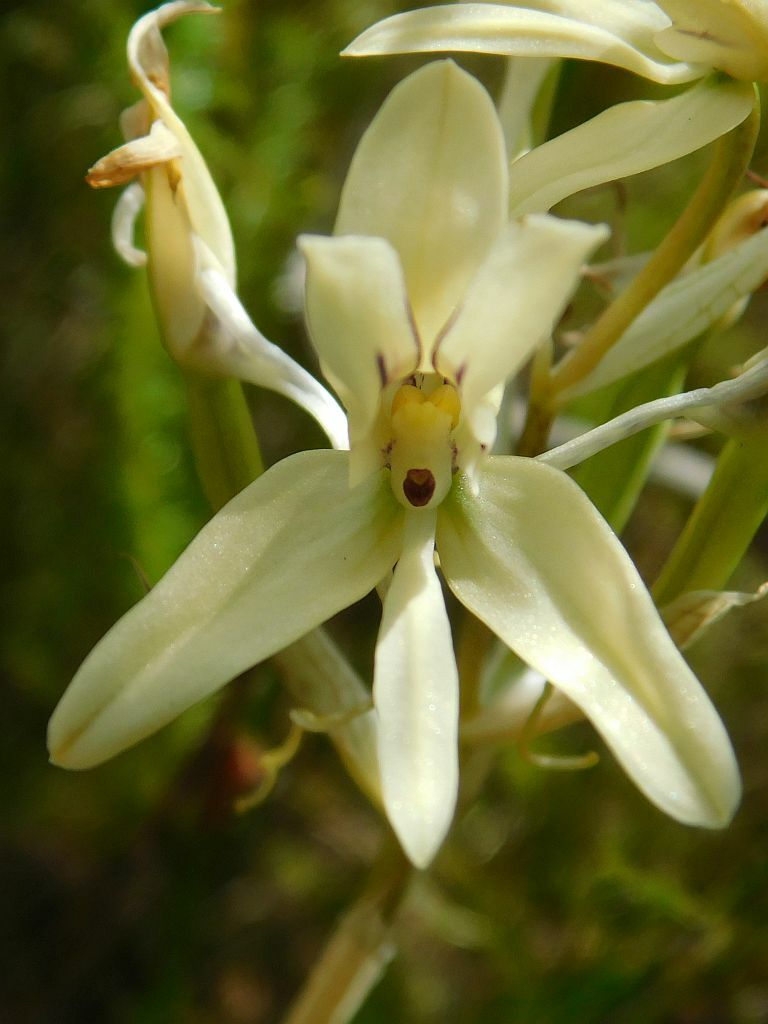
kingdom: Plantae
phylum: Tracheophyta
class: Liliopsida
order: Asparagales
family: Orchidaceae
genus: Disa
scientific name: Disa harveyana
